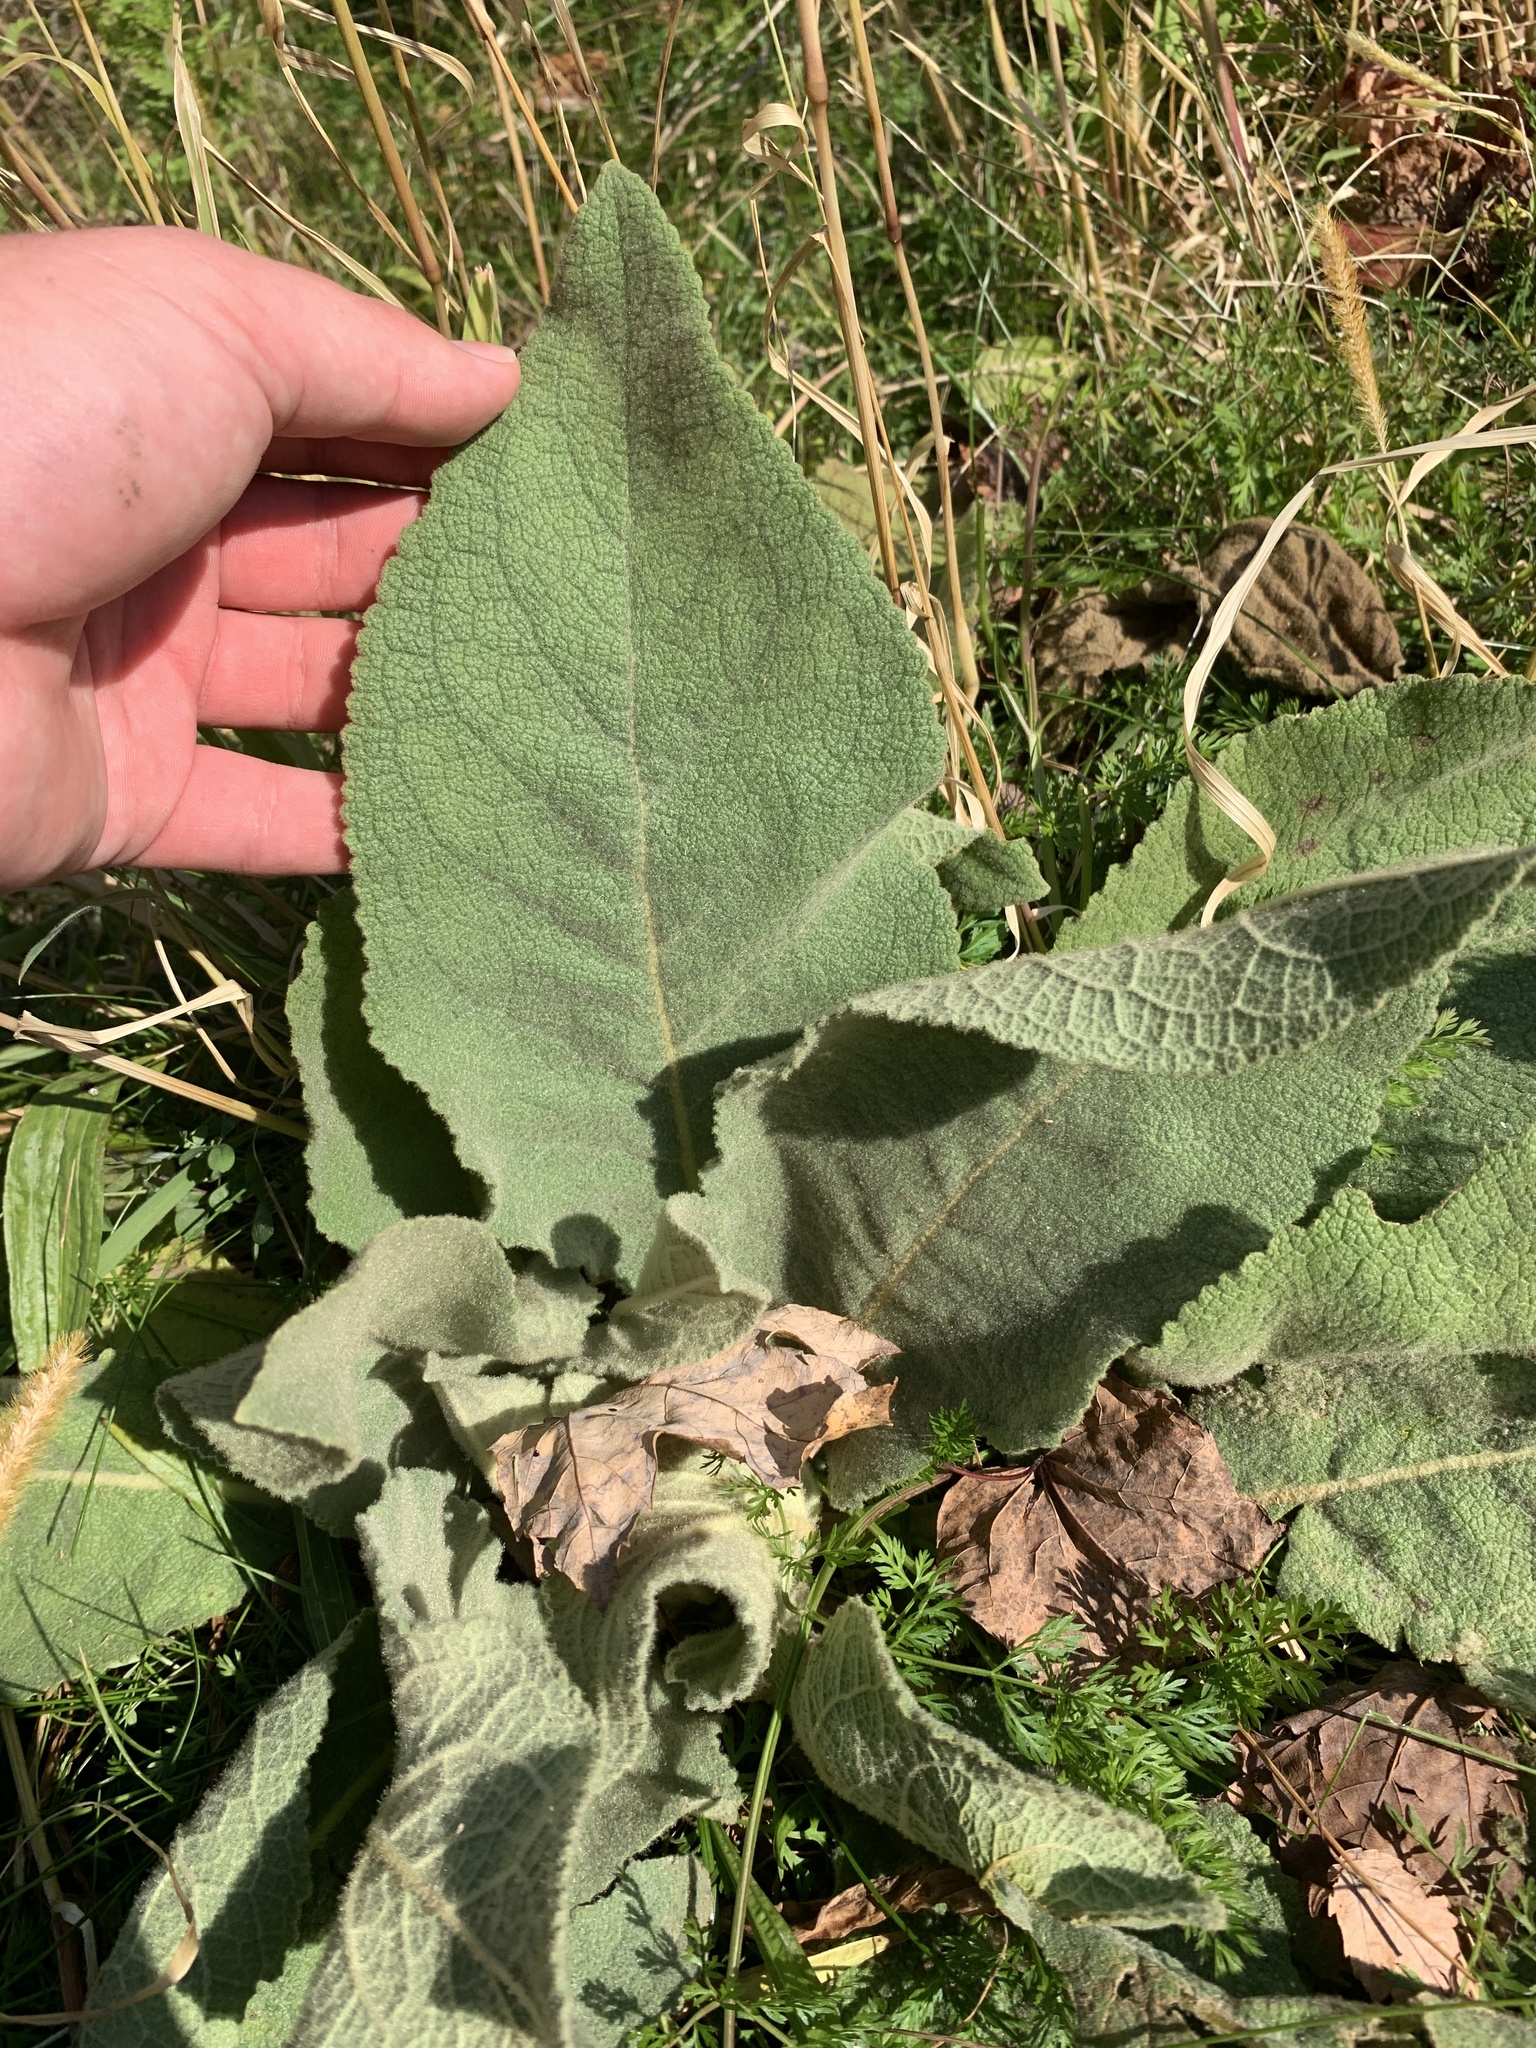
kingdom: Plantae
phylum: Tracheophyta
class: Magnoliopsida
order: Lamiales
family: Scrophulariaceae
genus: Verbascum
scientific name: Verbascum thapsus
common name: Common mullein
